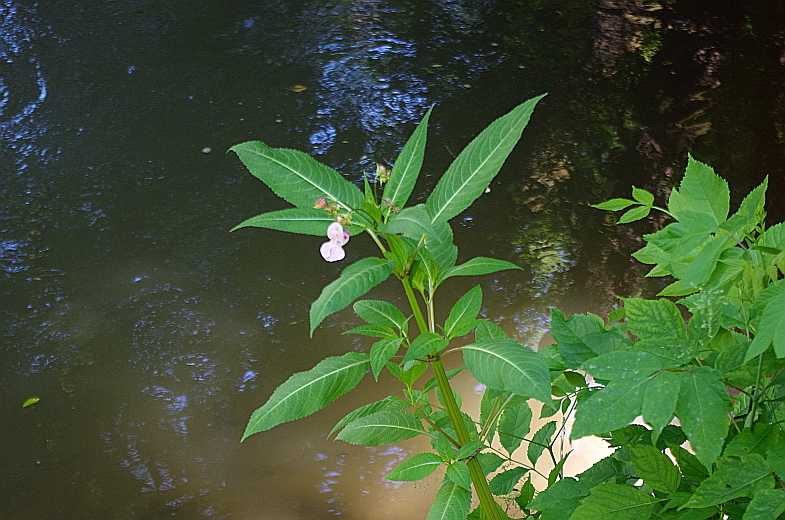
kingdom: Plantae
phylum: Tracheophyta
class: Magnoliopsida
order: Ericales
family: Balsaminaceae
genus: Impatiens
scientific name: Impatiens glandulifera
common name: Himalayan balsam
